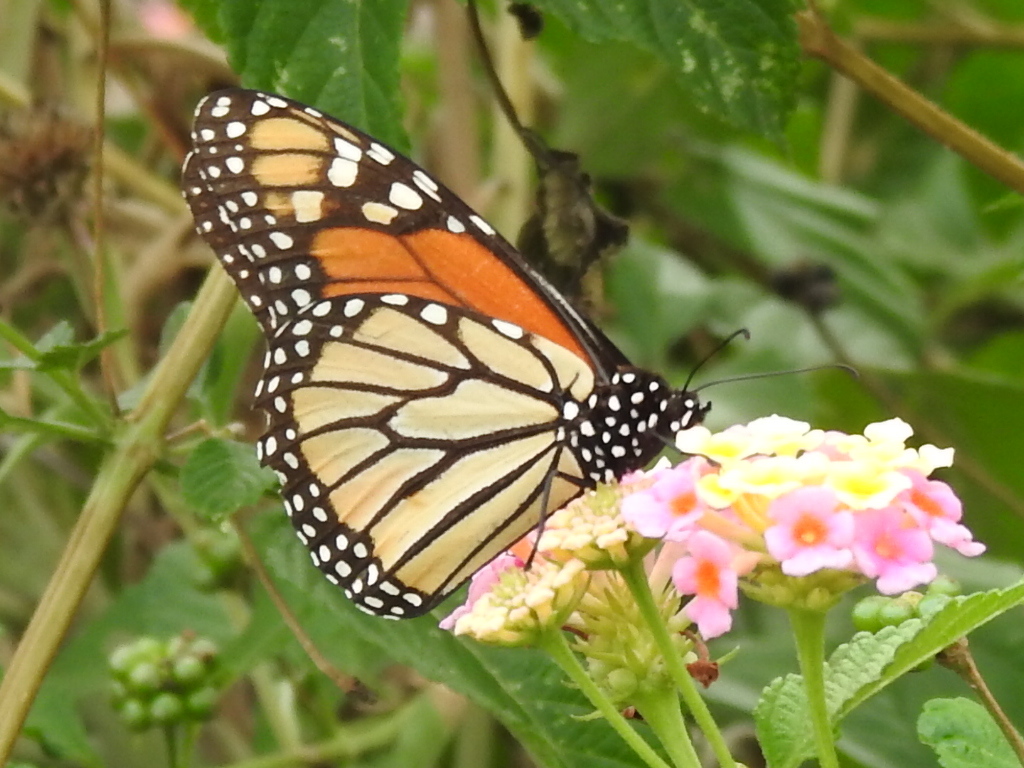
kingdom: Animalia
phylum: Arthropoda
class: Insecta
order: Lepidoptera
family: Nymphalidae
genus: Danaus
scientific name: Danaus plexippus
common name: Monarch
